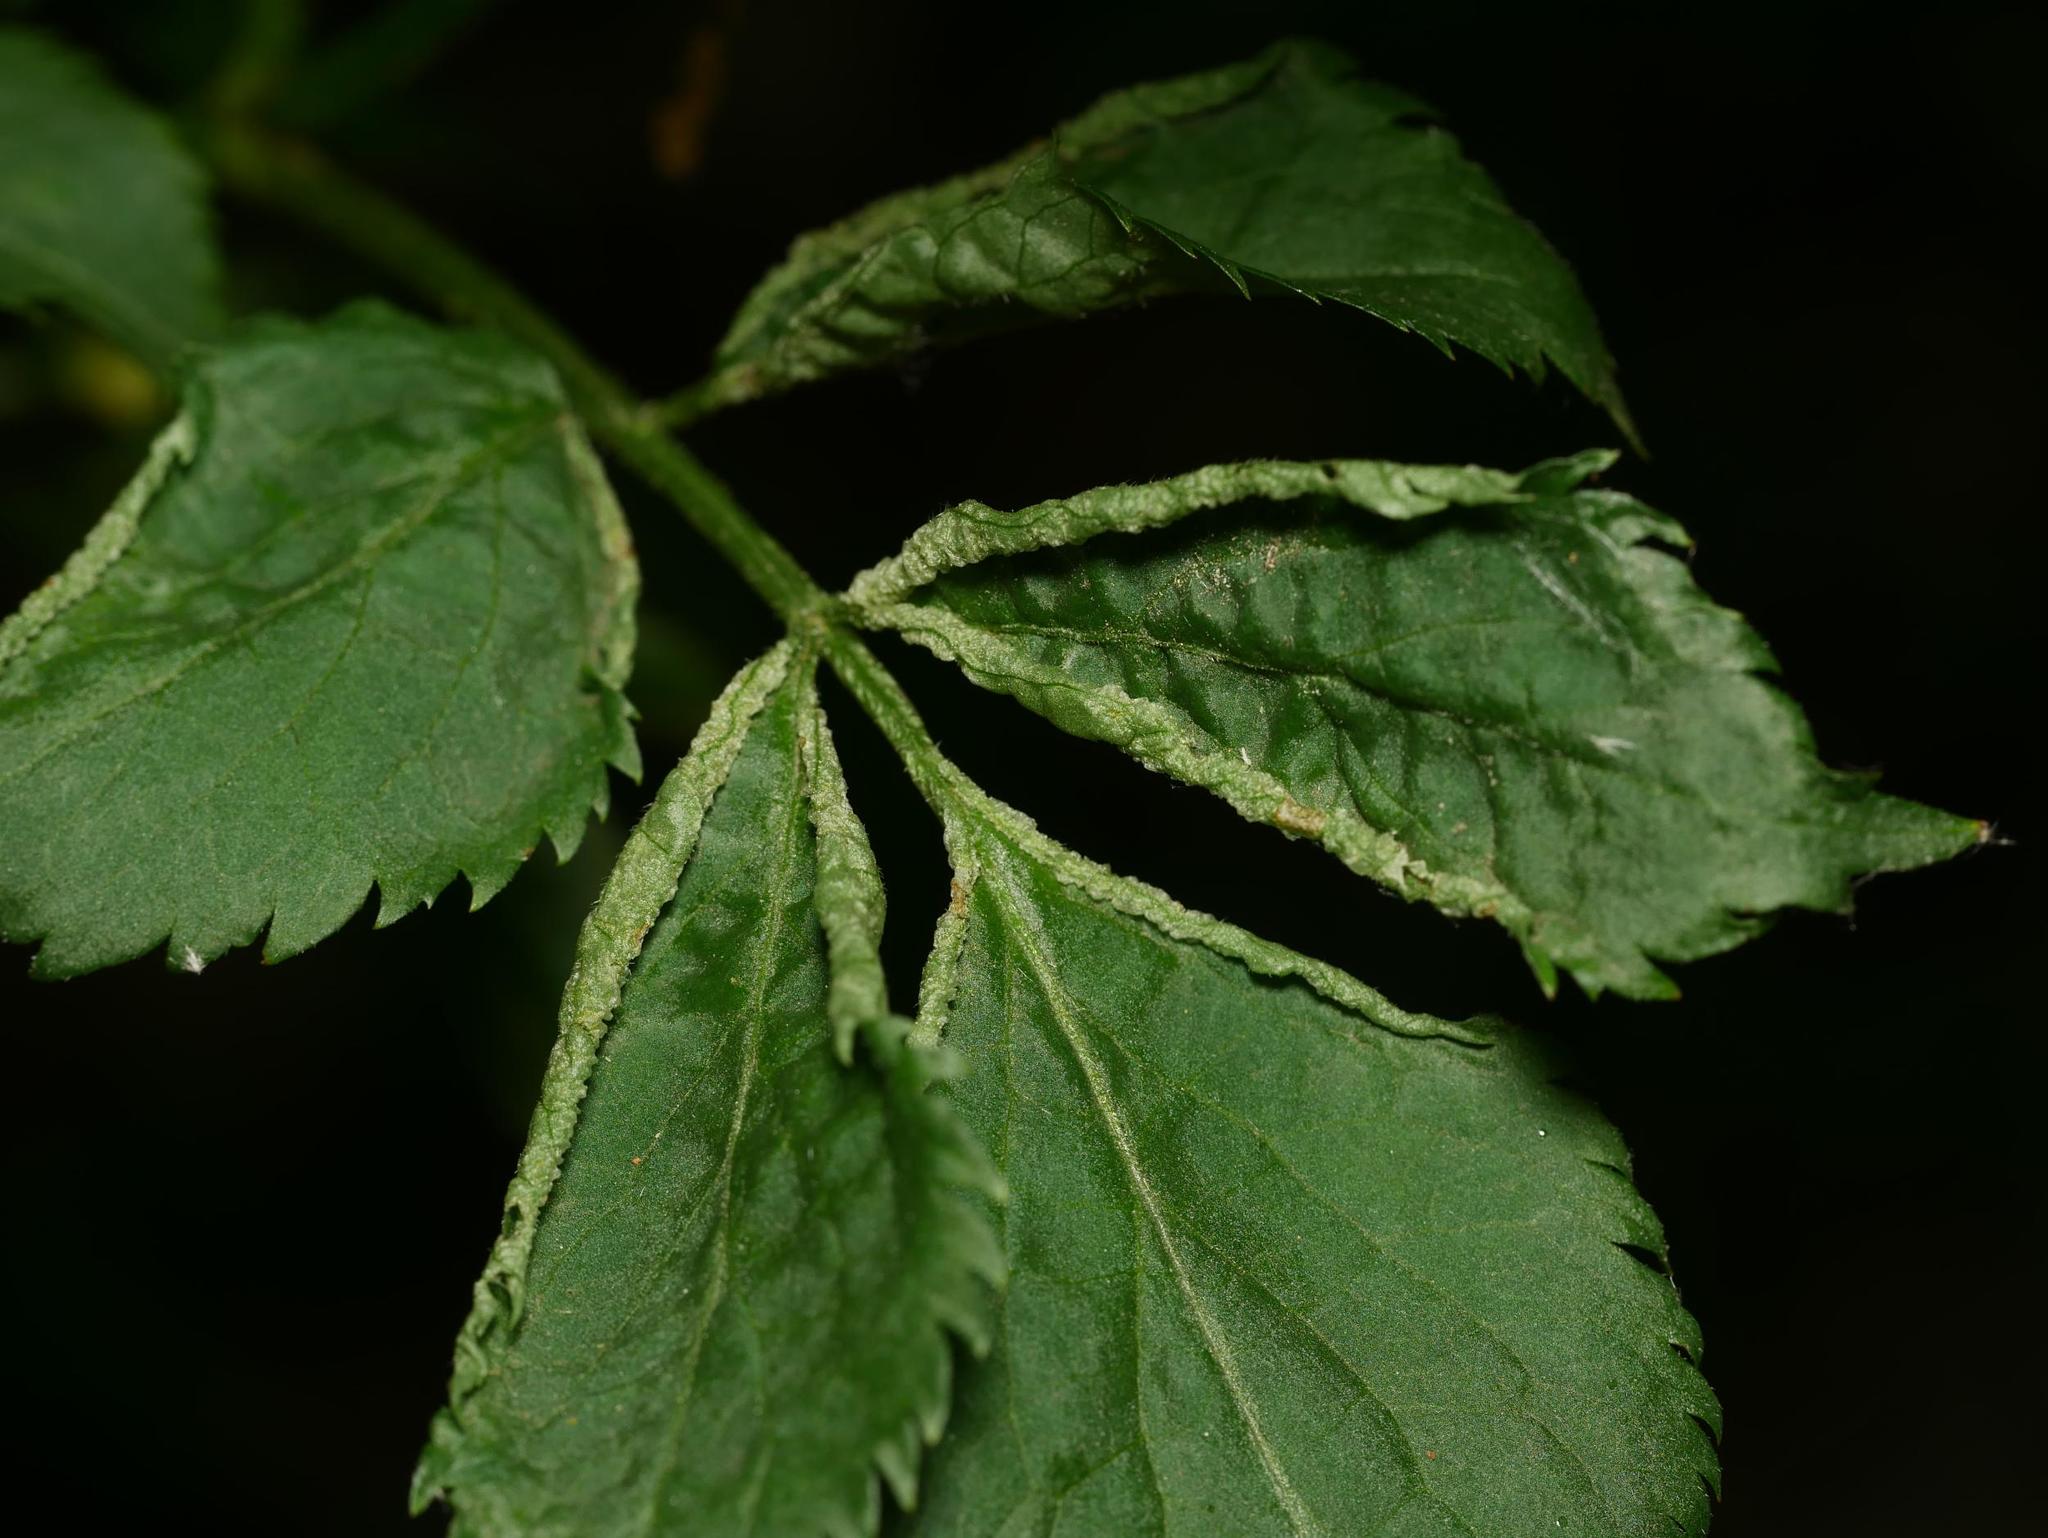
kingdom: Animalia
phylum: Arthropoda
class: Arachnida
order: Trombidiformes
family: Eriophyidae
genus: Epitrimerus
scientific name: Epitrimerus trilobus
